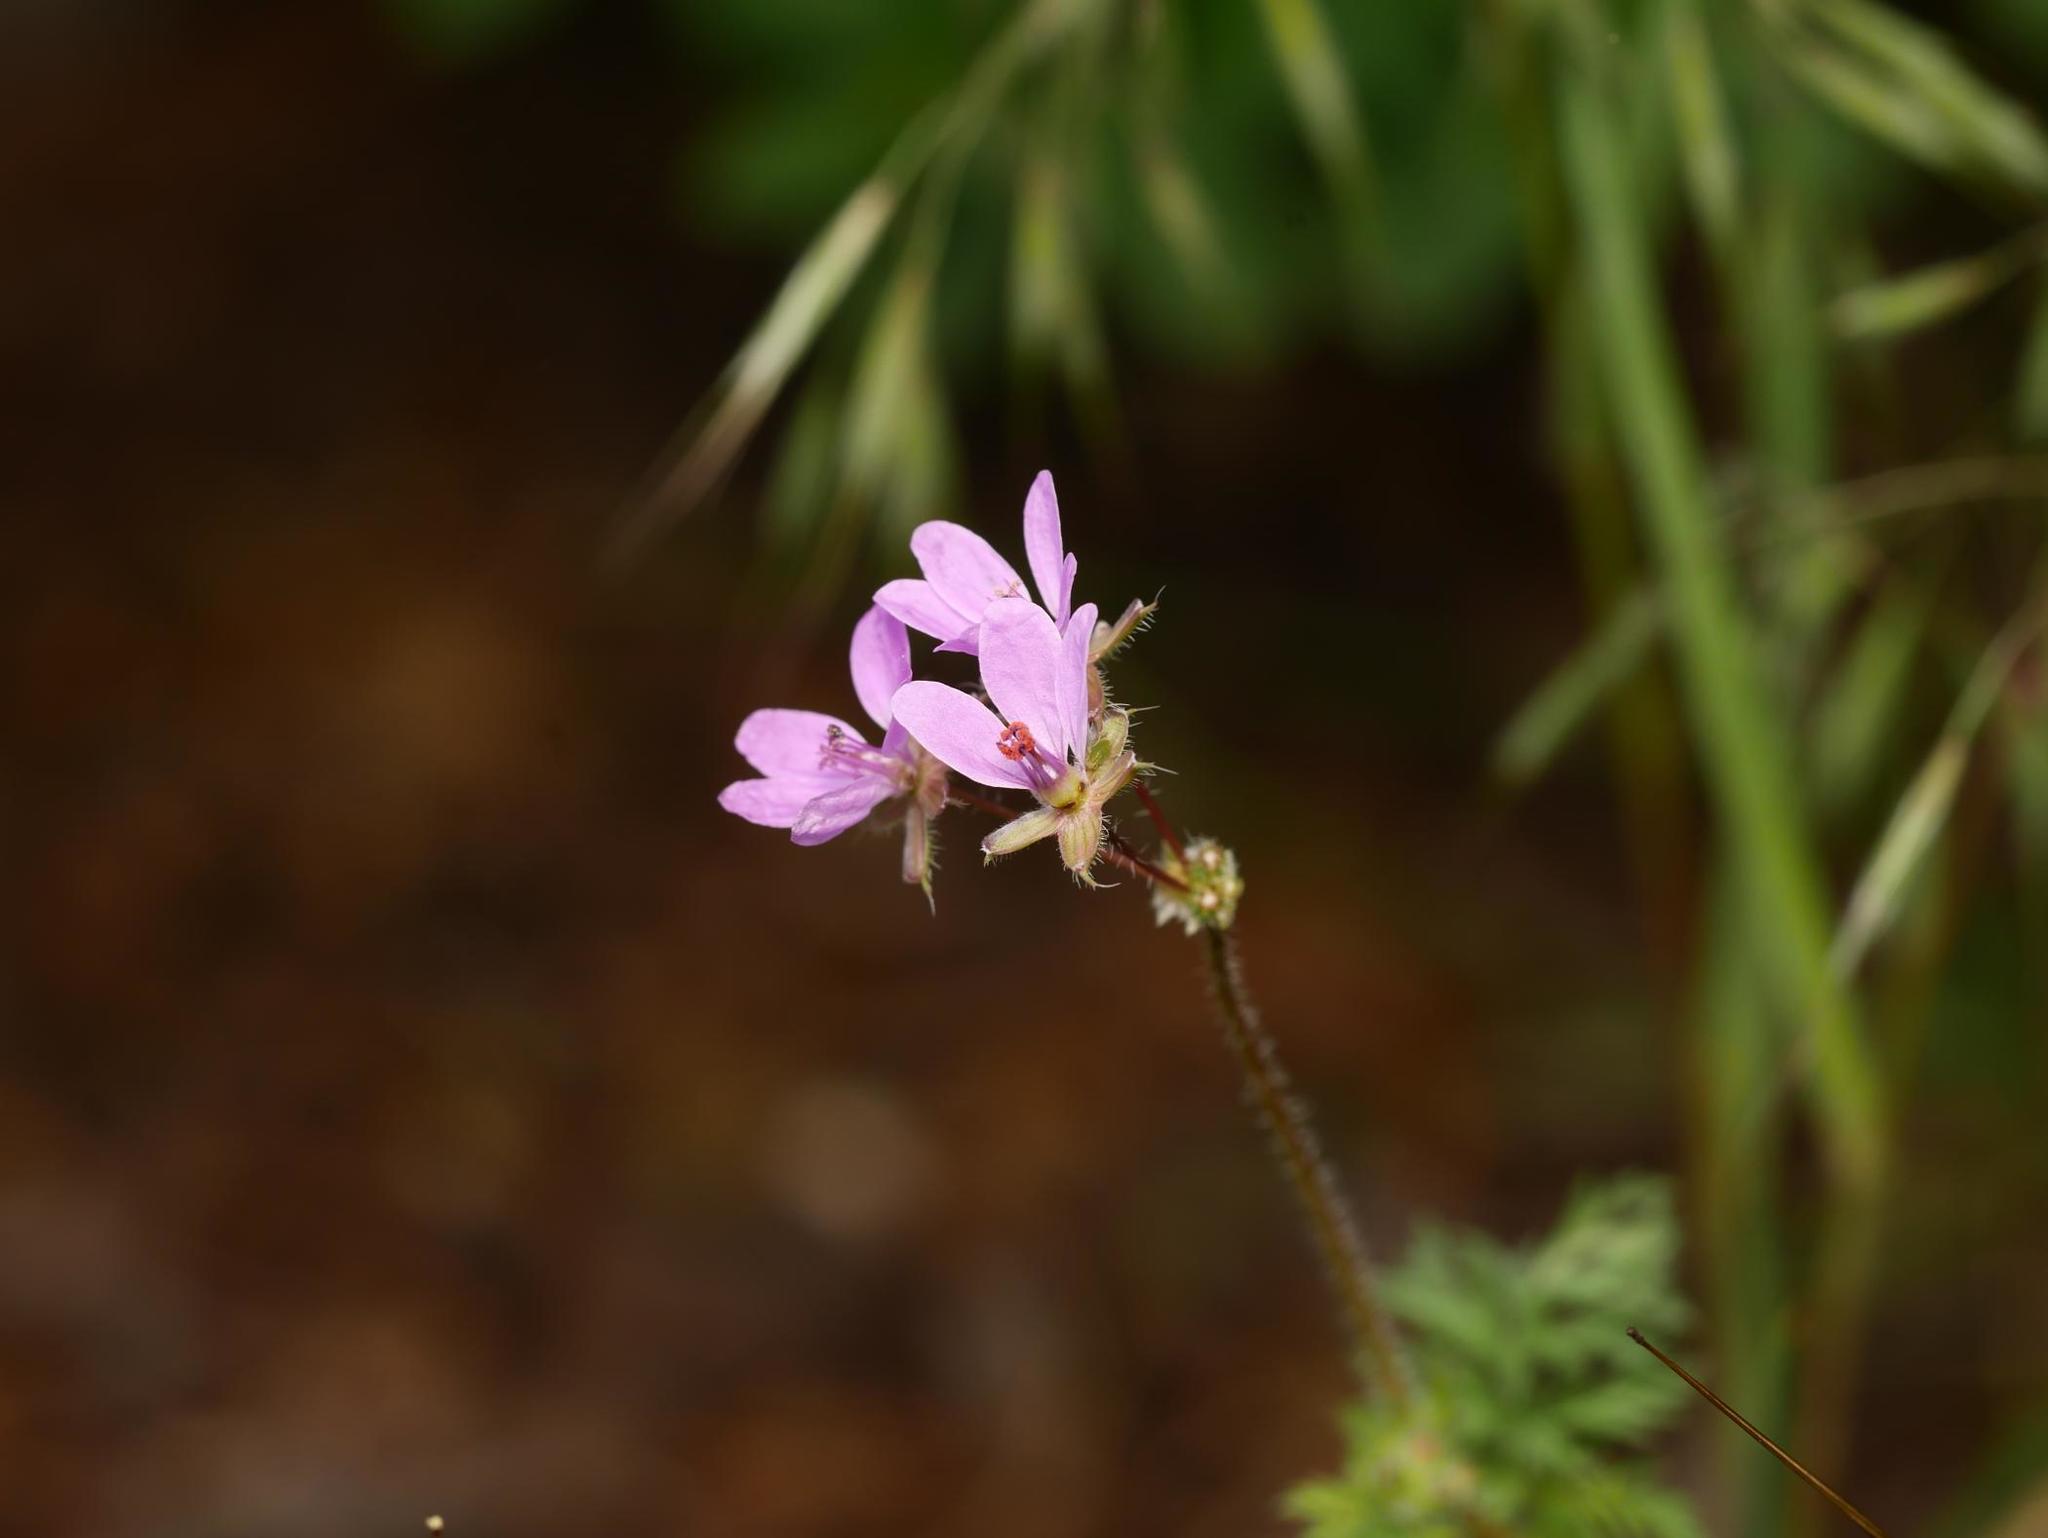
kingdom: Plantae
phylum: Tracheophyta
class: Magnoliopsida
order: Geraniales
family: Geraniaceae
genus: Erodium
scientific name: Erodium cicutarium
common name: Common stork's-bill
